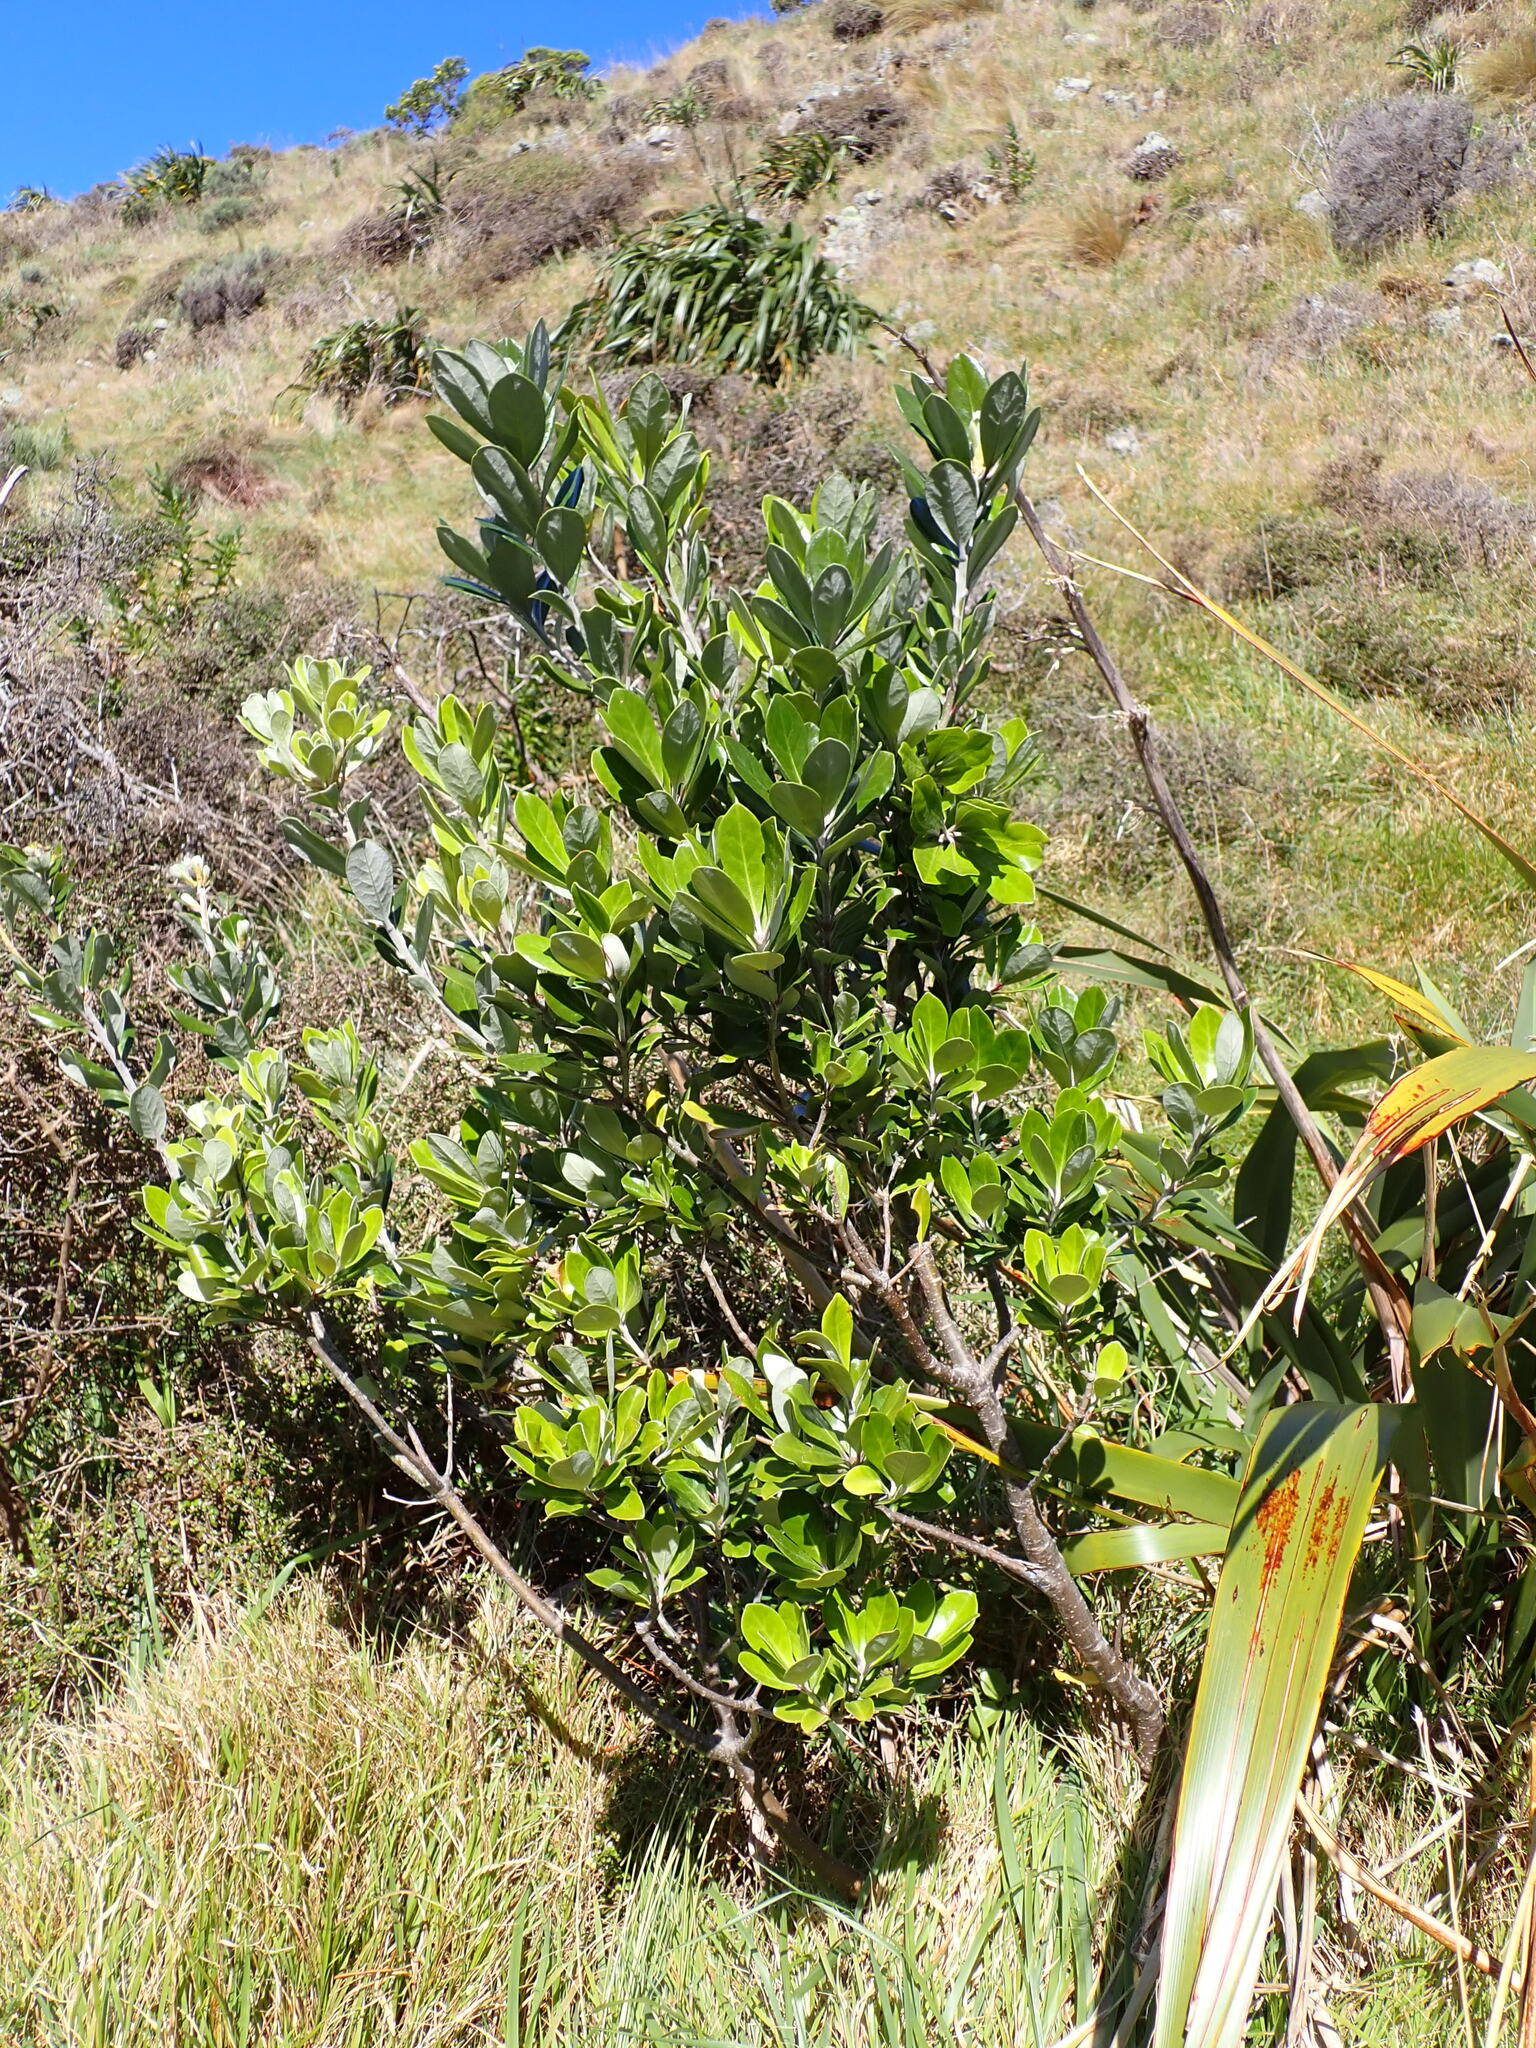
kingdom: Plantae
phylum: Tracheophyta
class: Magnoliopsida
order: Apiales
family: Pittosporaceae
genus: Pittosporum
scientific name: Pittosporum crassifolium
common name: Karo
